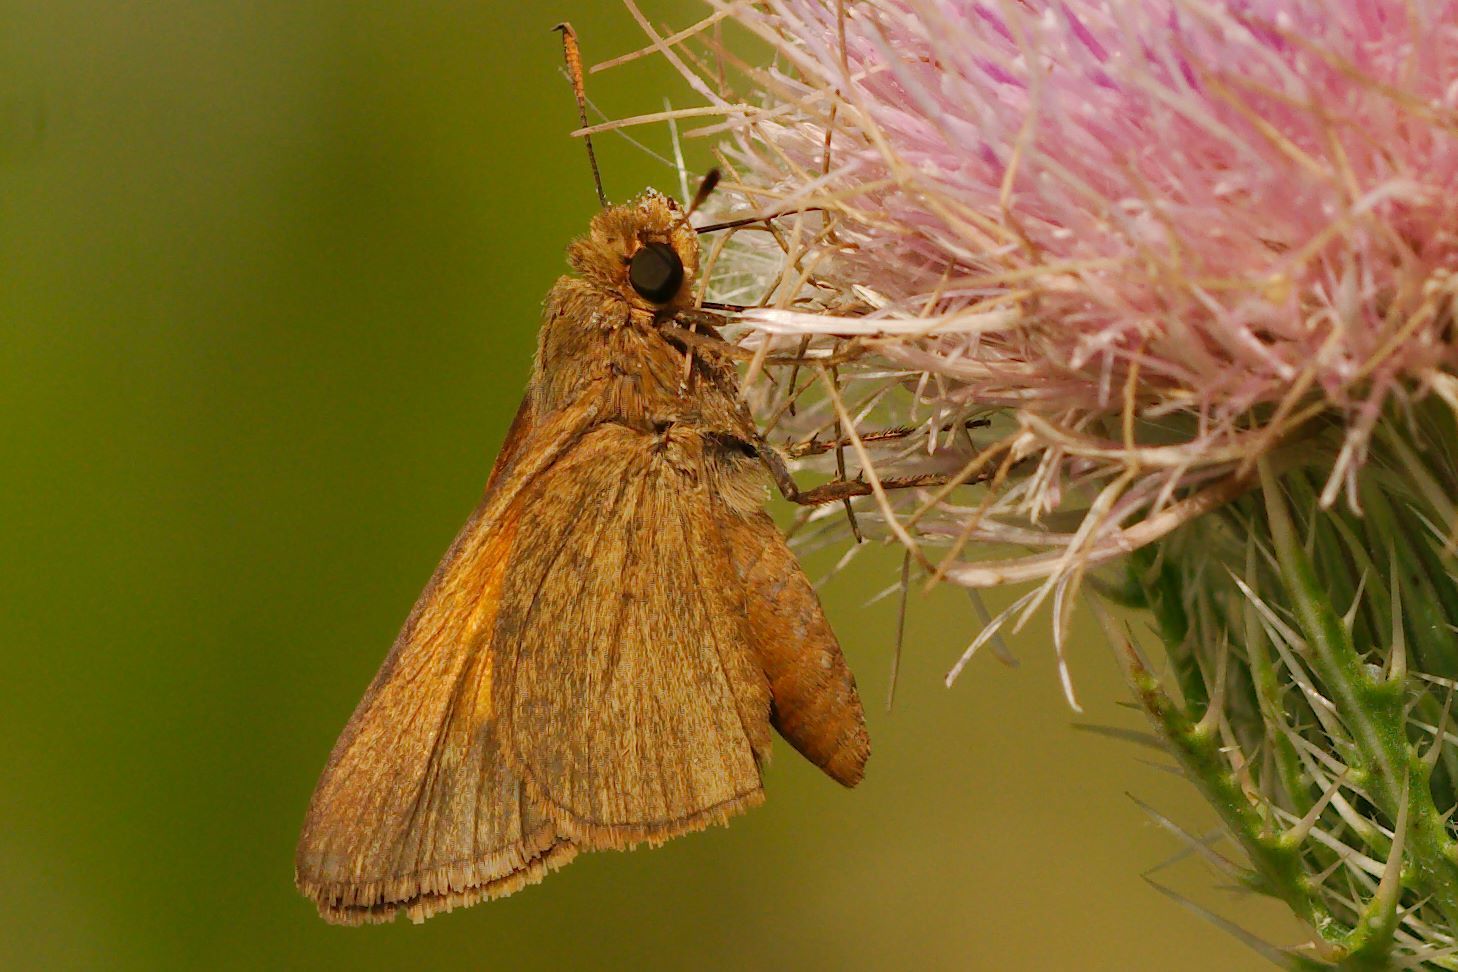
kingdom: Animalia
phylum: Arthropoda
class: Insecta
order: Lepidoptera
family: Hesperiidae
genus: Euphyes
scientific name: Euphyes pilatka
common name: Palatka skipper
